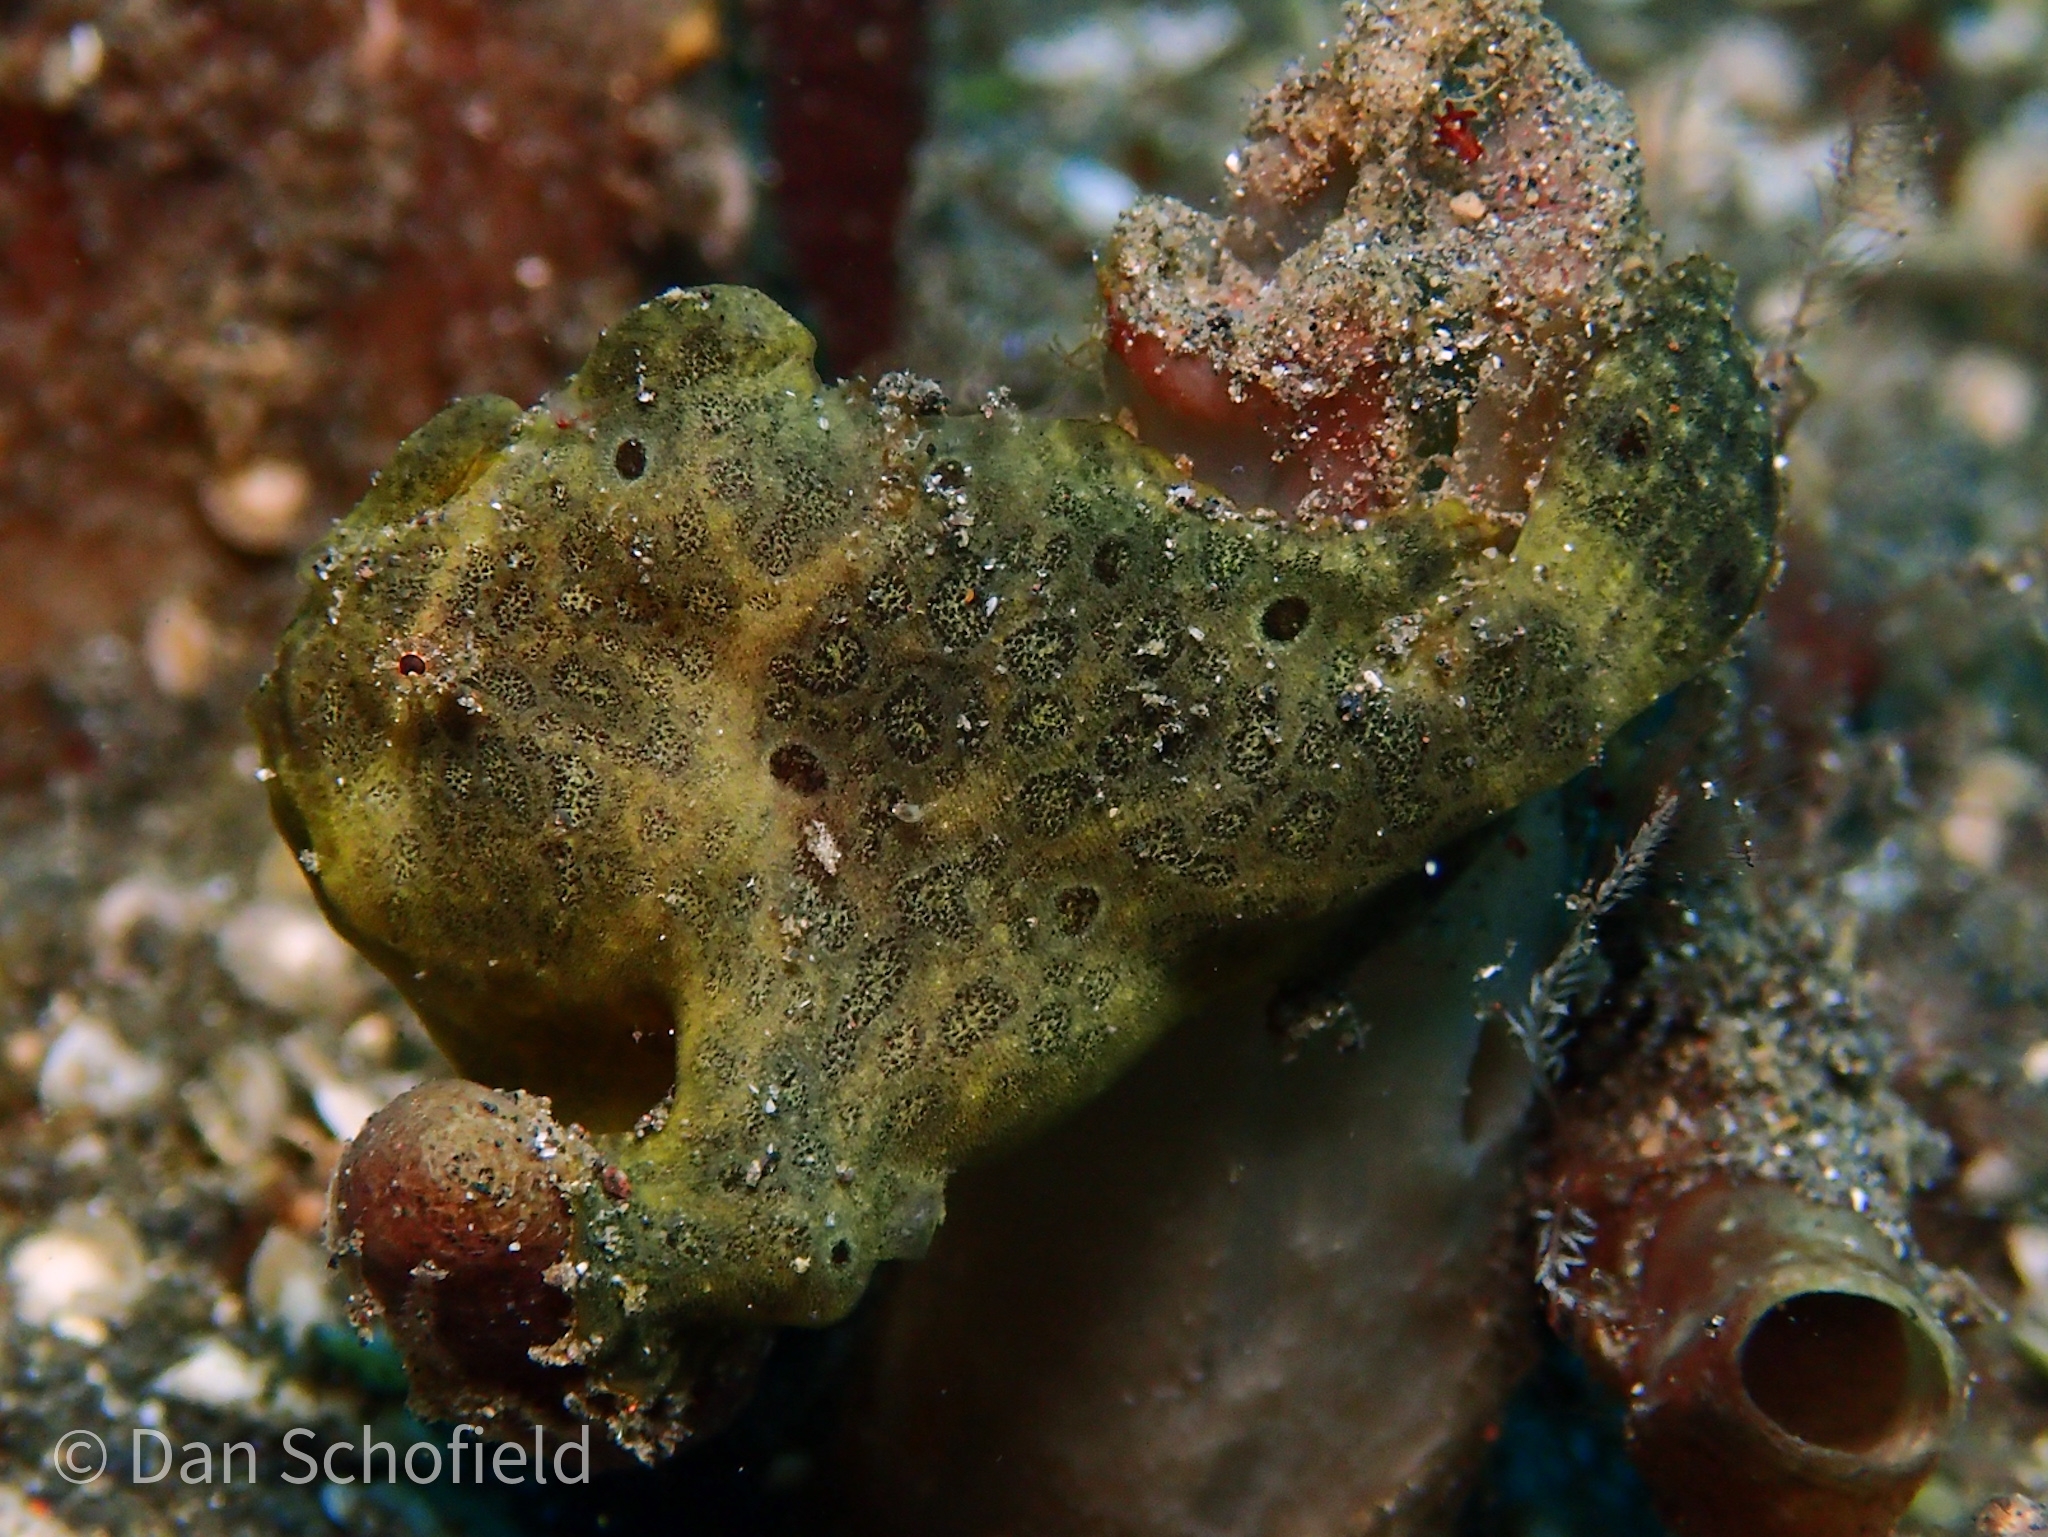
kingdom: Animalia
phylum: Chordata
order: Lophiiformes
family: Antennariidae
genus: Antennarius
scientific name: Antennarius pictus
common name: Painted frogfish
